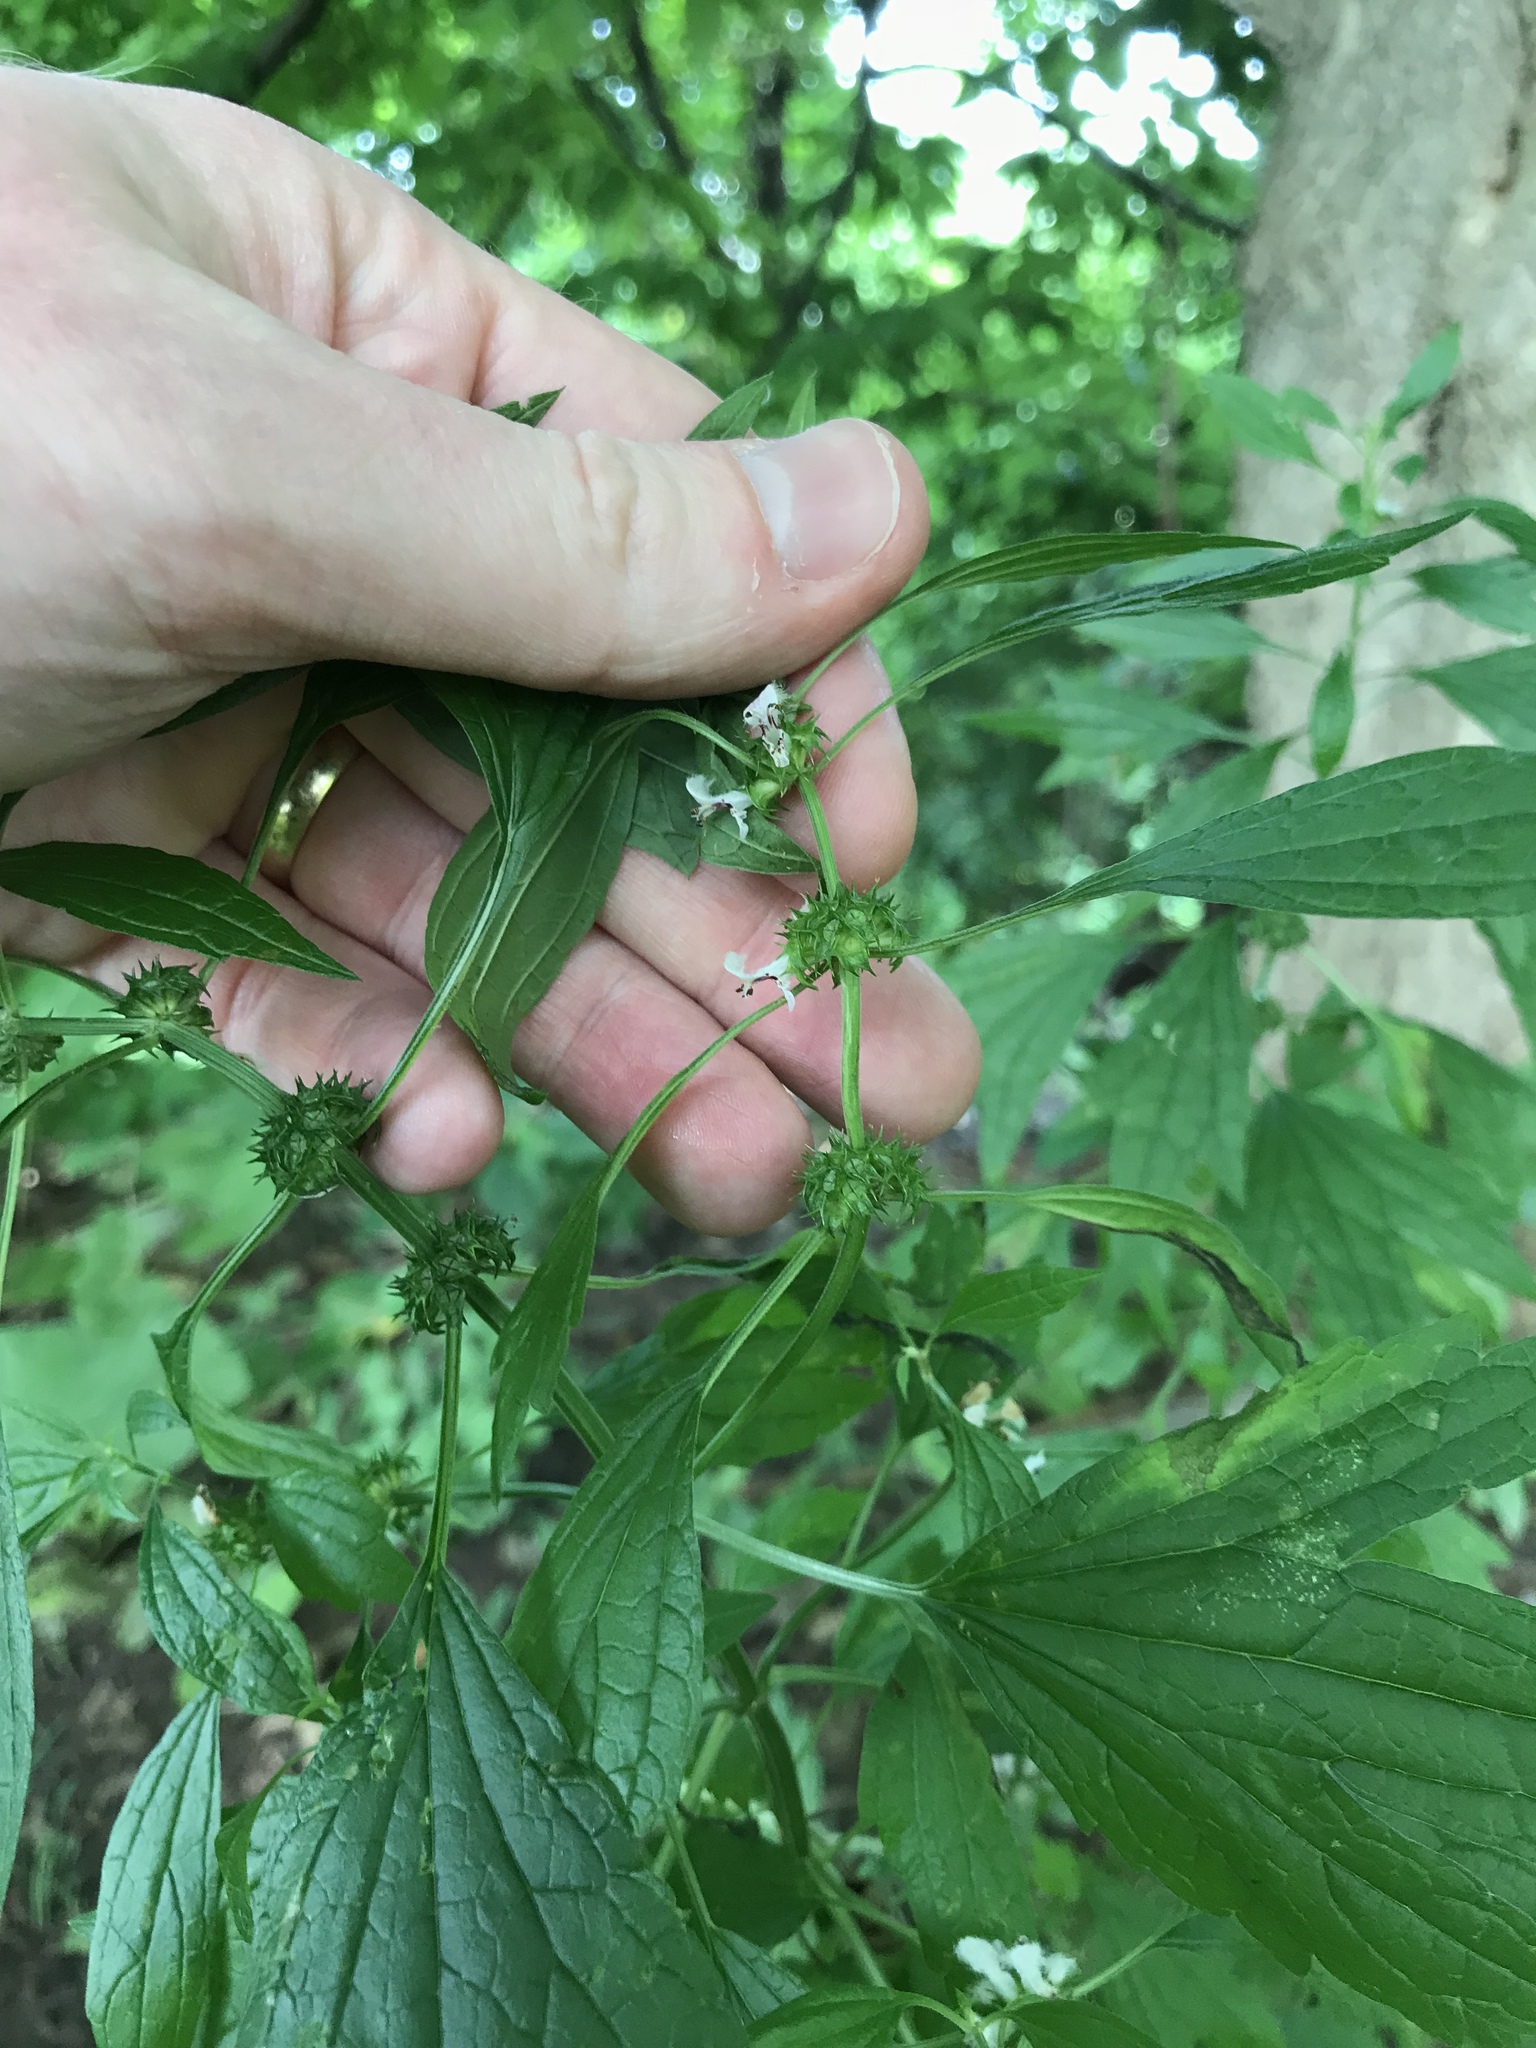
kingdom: Plantae
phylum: Tracheophyta
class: Magnoliopsida
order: Lamiales
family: Lamiaceae
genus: Leonurus
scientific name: Leonurus cardiaca
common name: Motherwort
